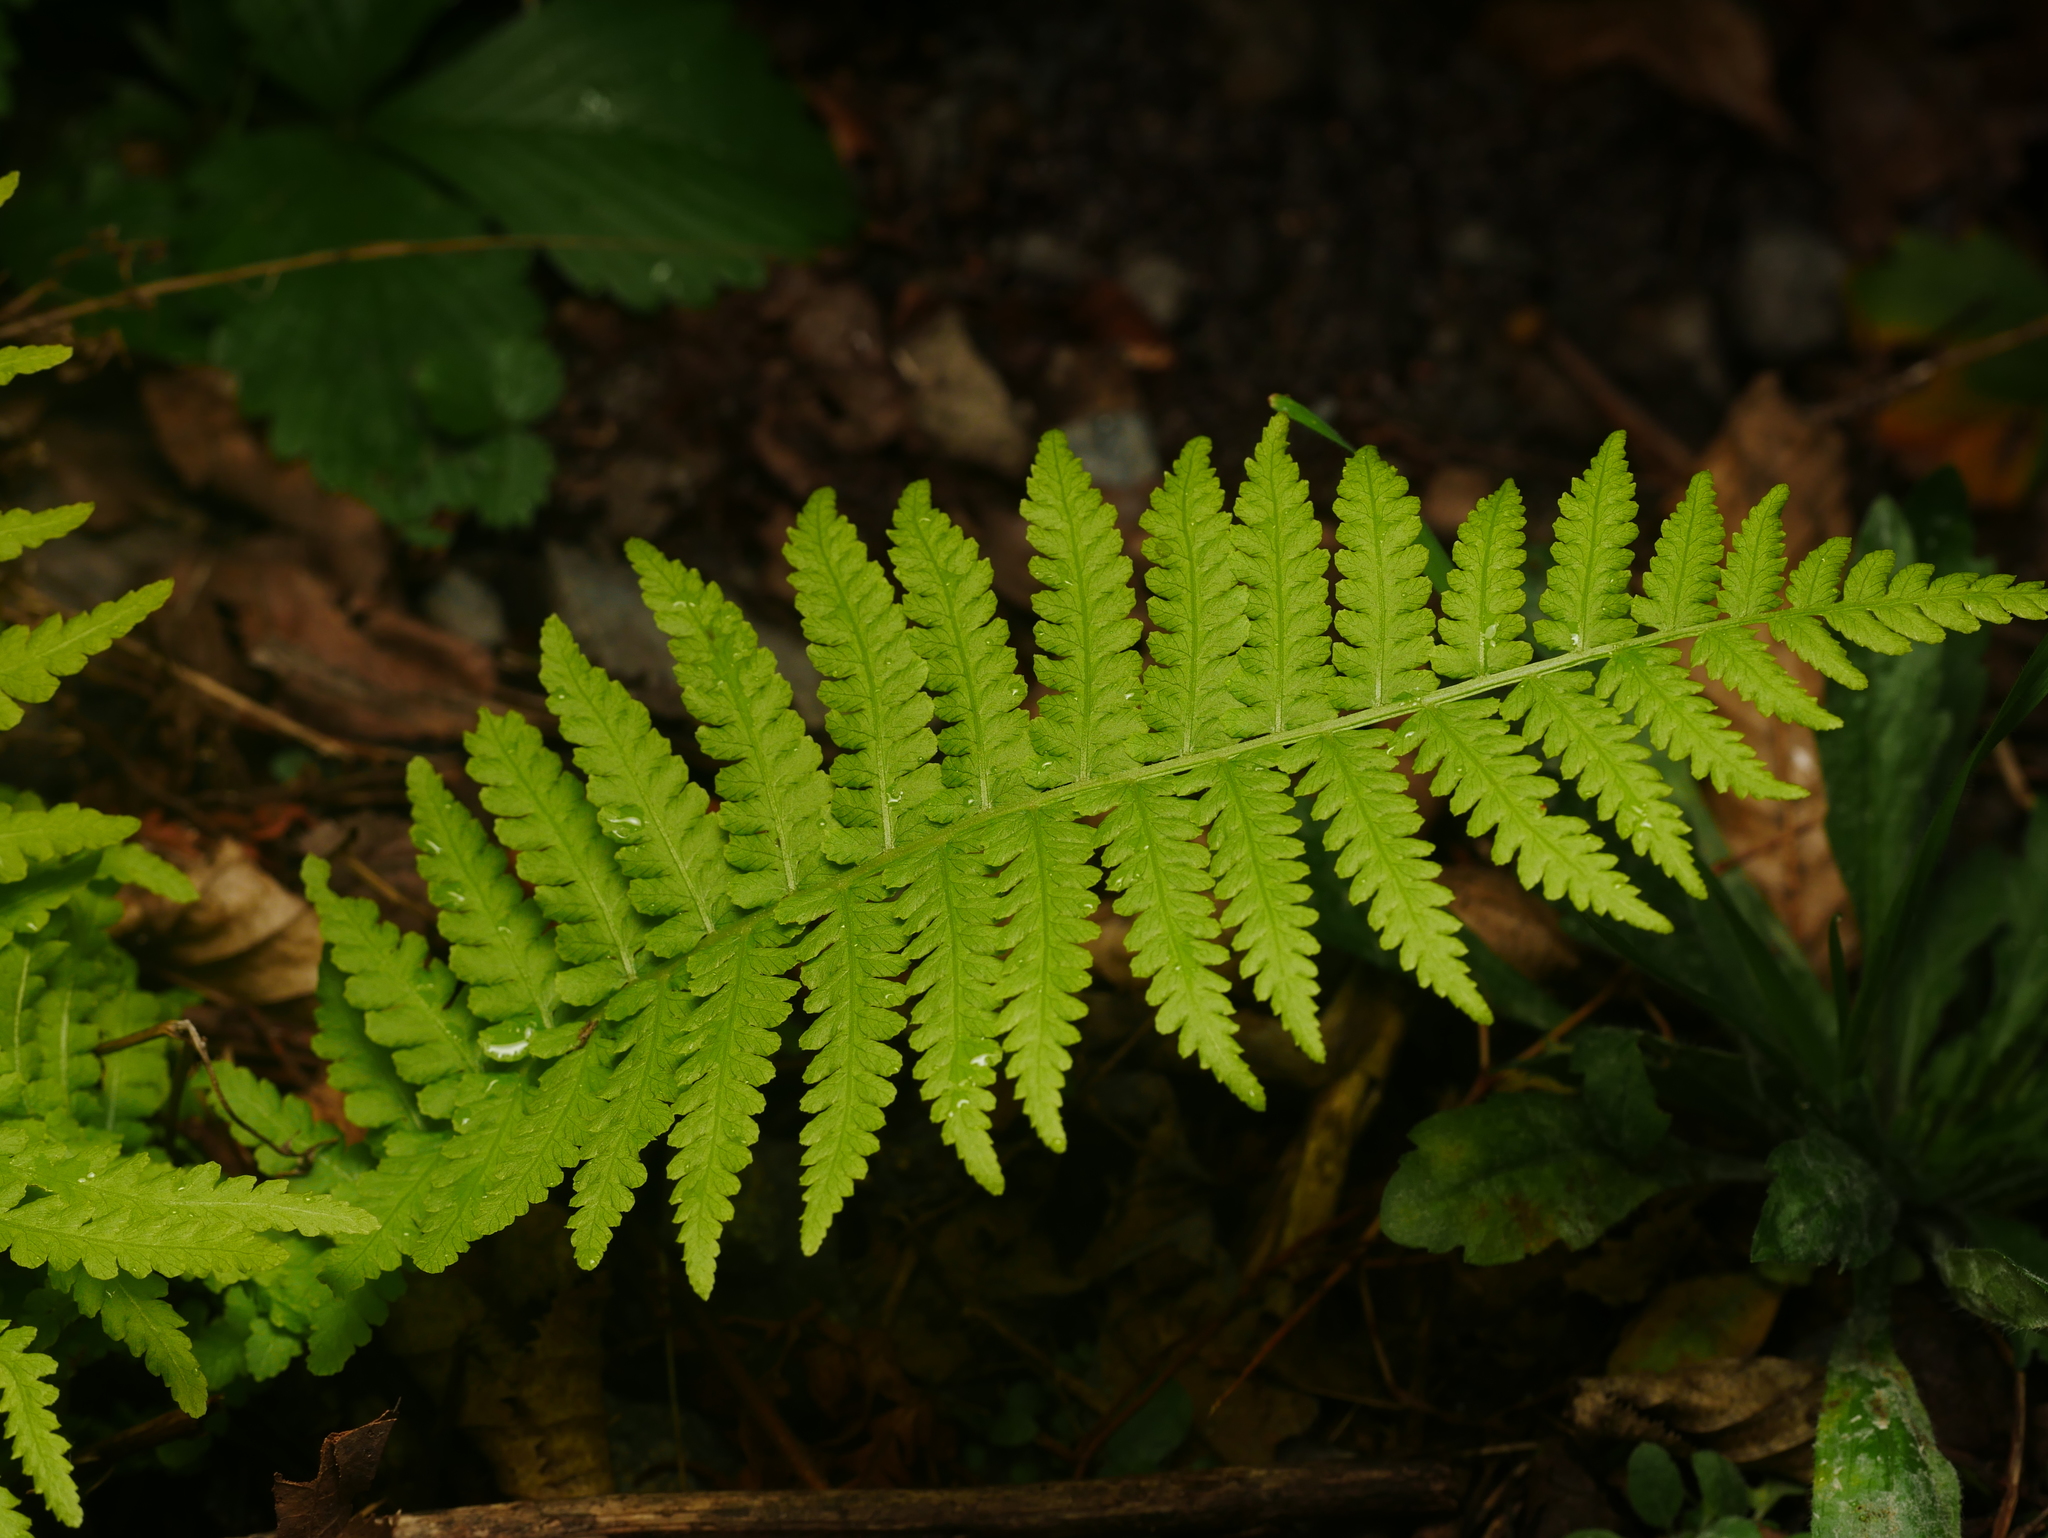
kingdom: Plantae
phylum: Tracheophyta
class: Polypodiopsida
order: Polypodiales
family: Onocleaceae
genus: Matteuccia
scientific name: Matteuccia struthiopteris
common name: Ostrich fern
